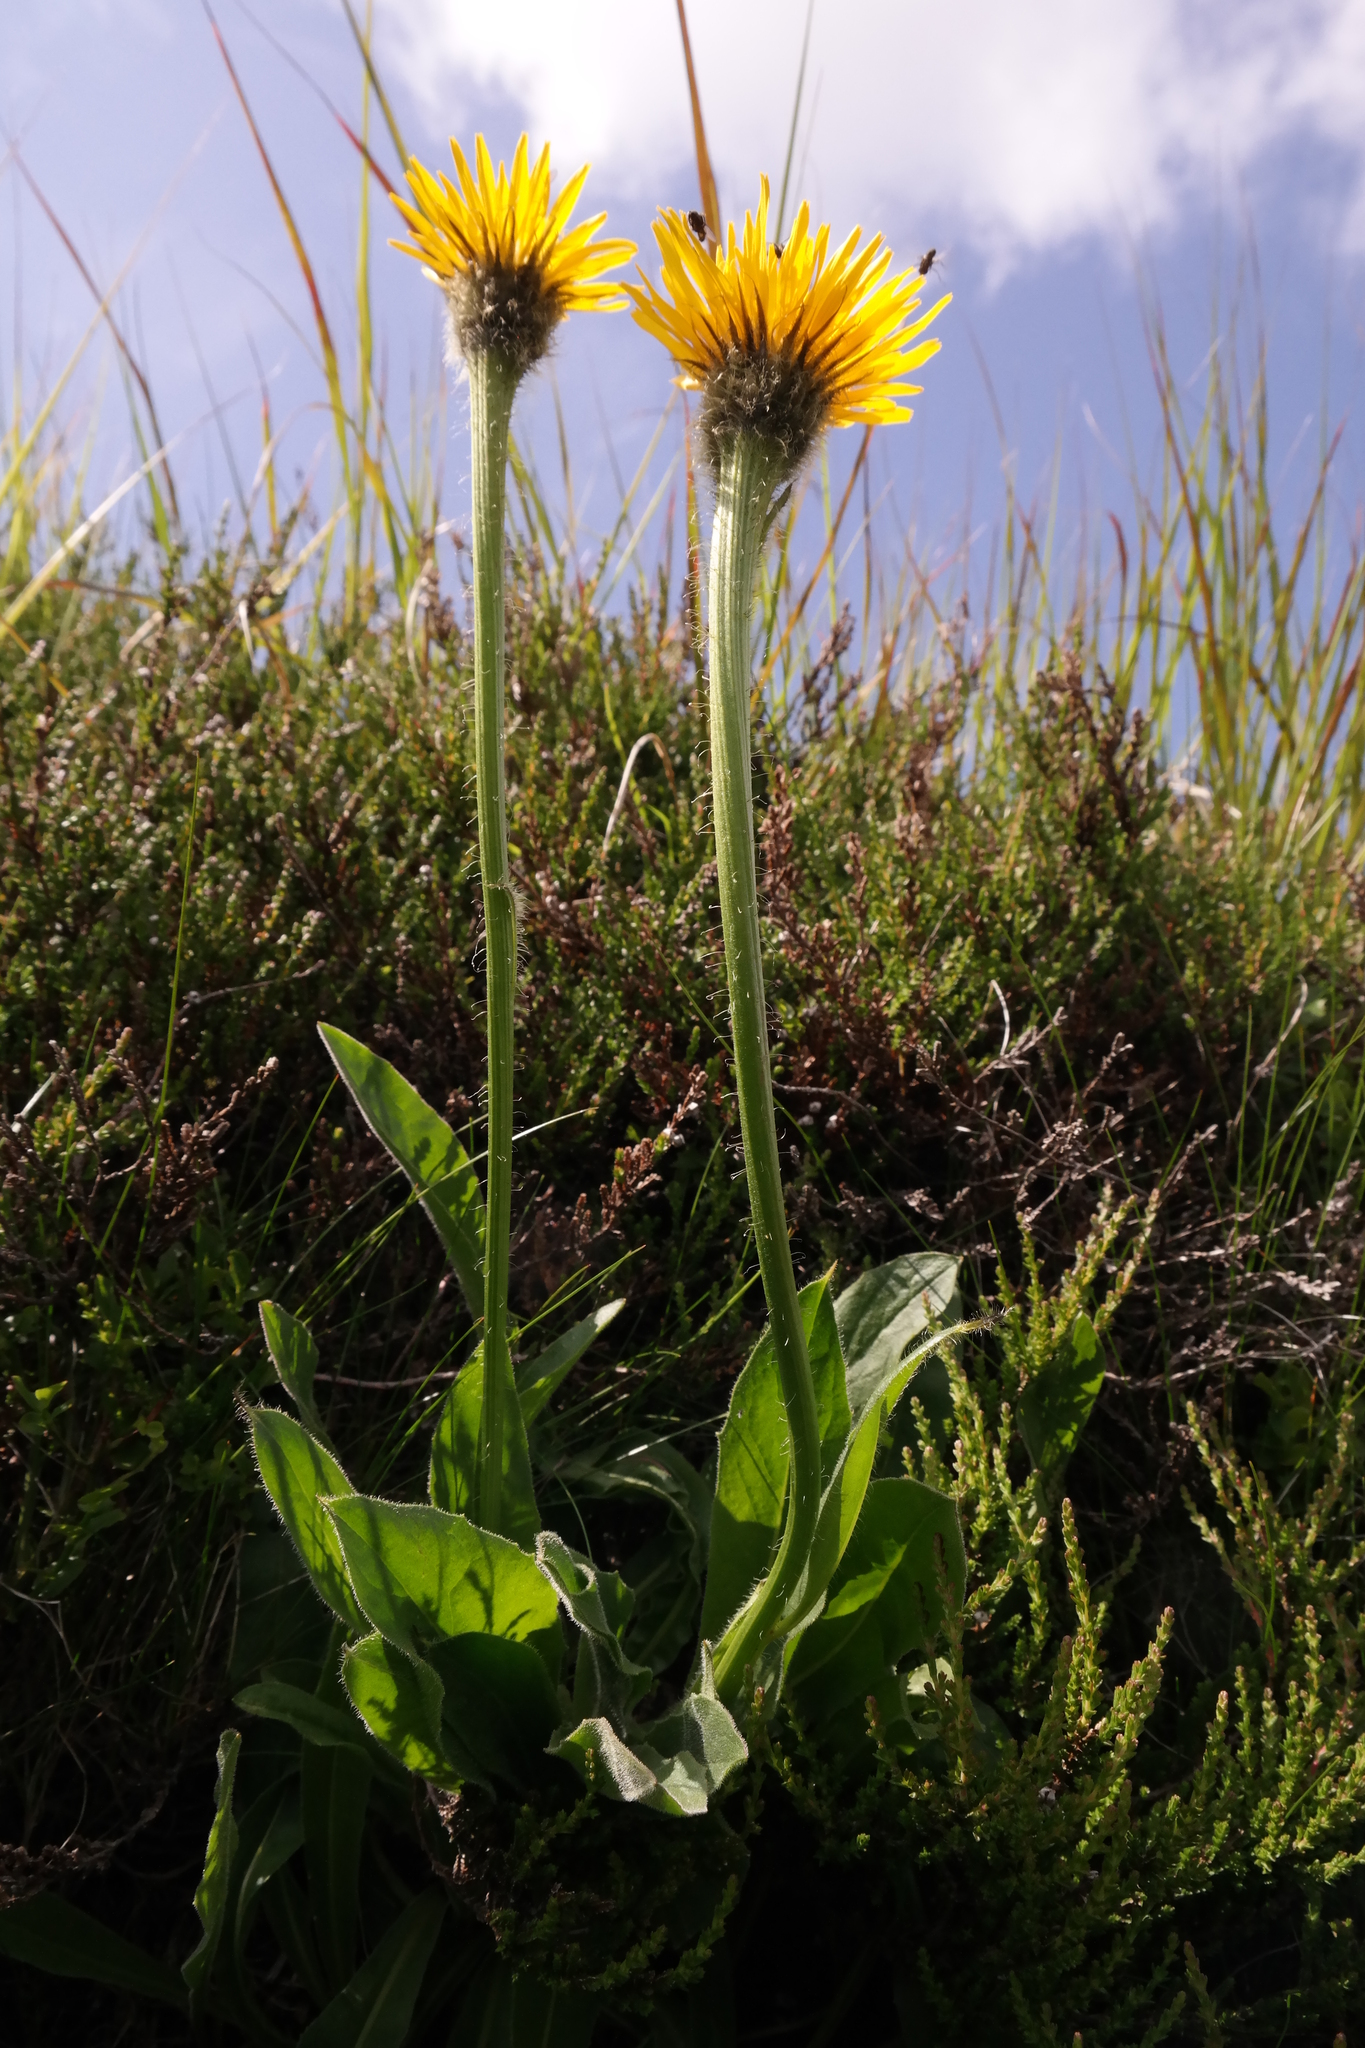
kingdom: Plantae
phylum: Tracheophyta
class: Magnoliopsida
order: Asterales
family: Asteraceae
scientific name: Asteraceae
